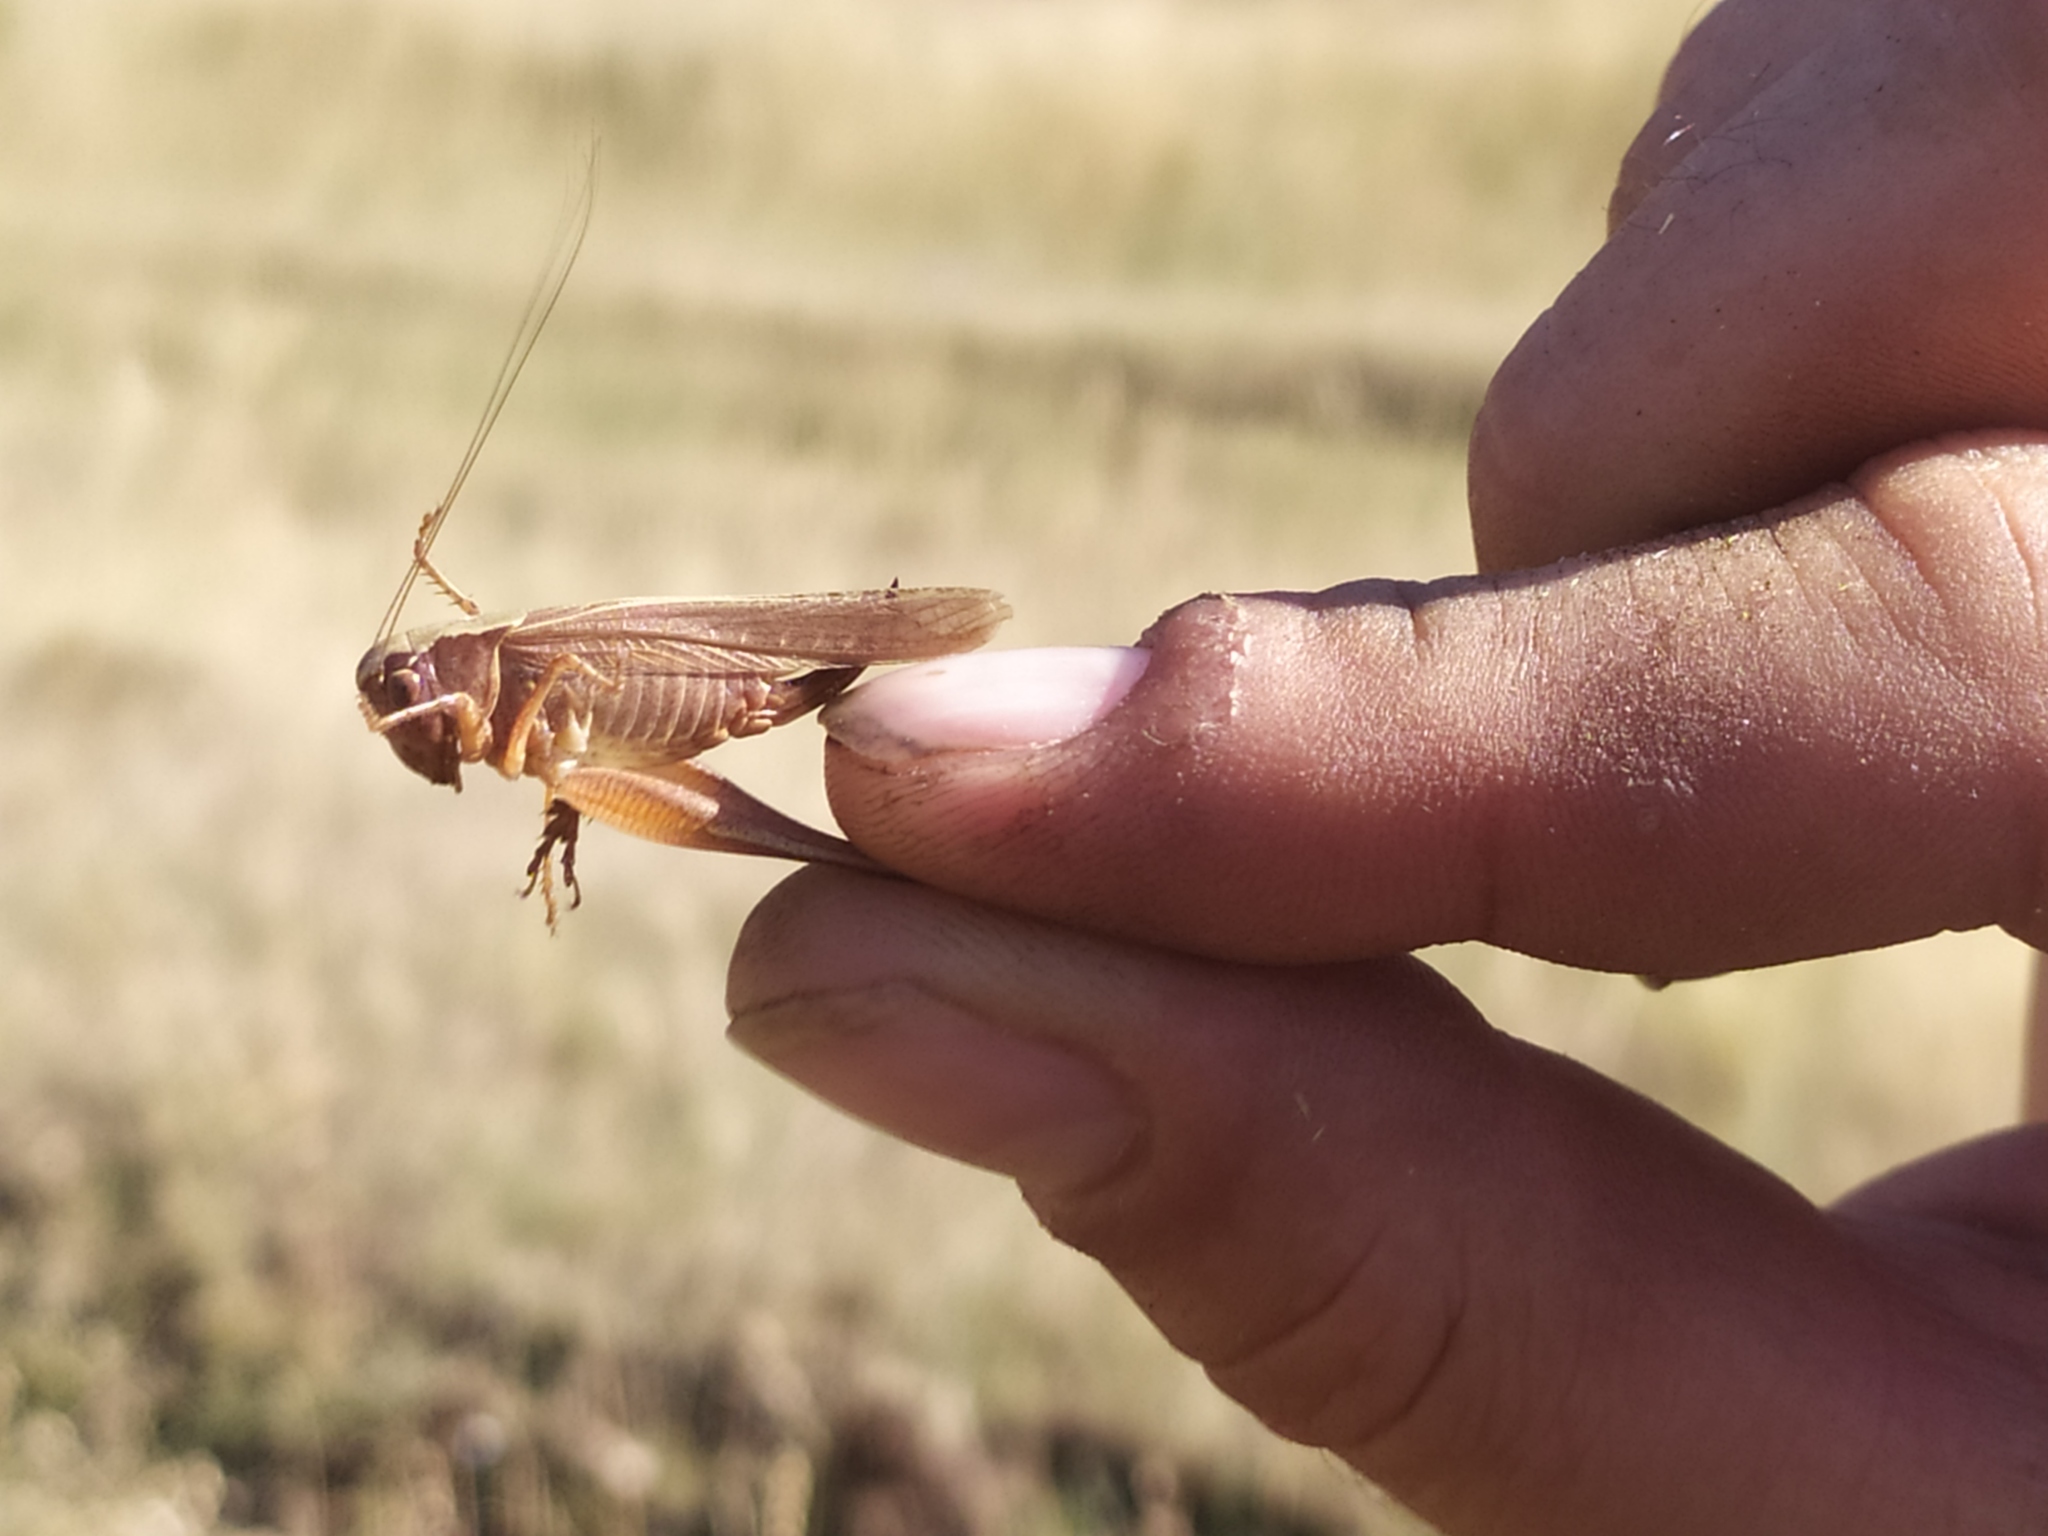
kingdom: Animalia
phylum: Arthropoda
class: Insecta
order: Orthoptera
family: Tettigoniidae
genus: Platycleis
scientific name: Platycleis grisea
